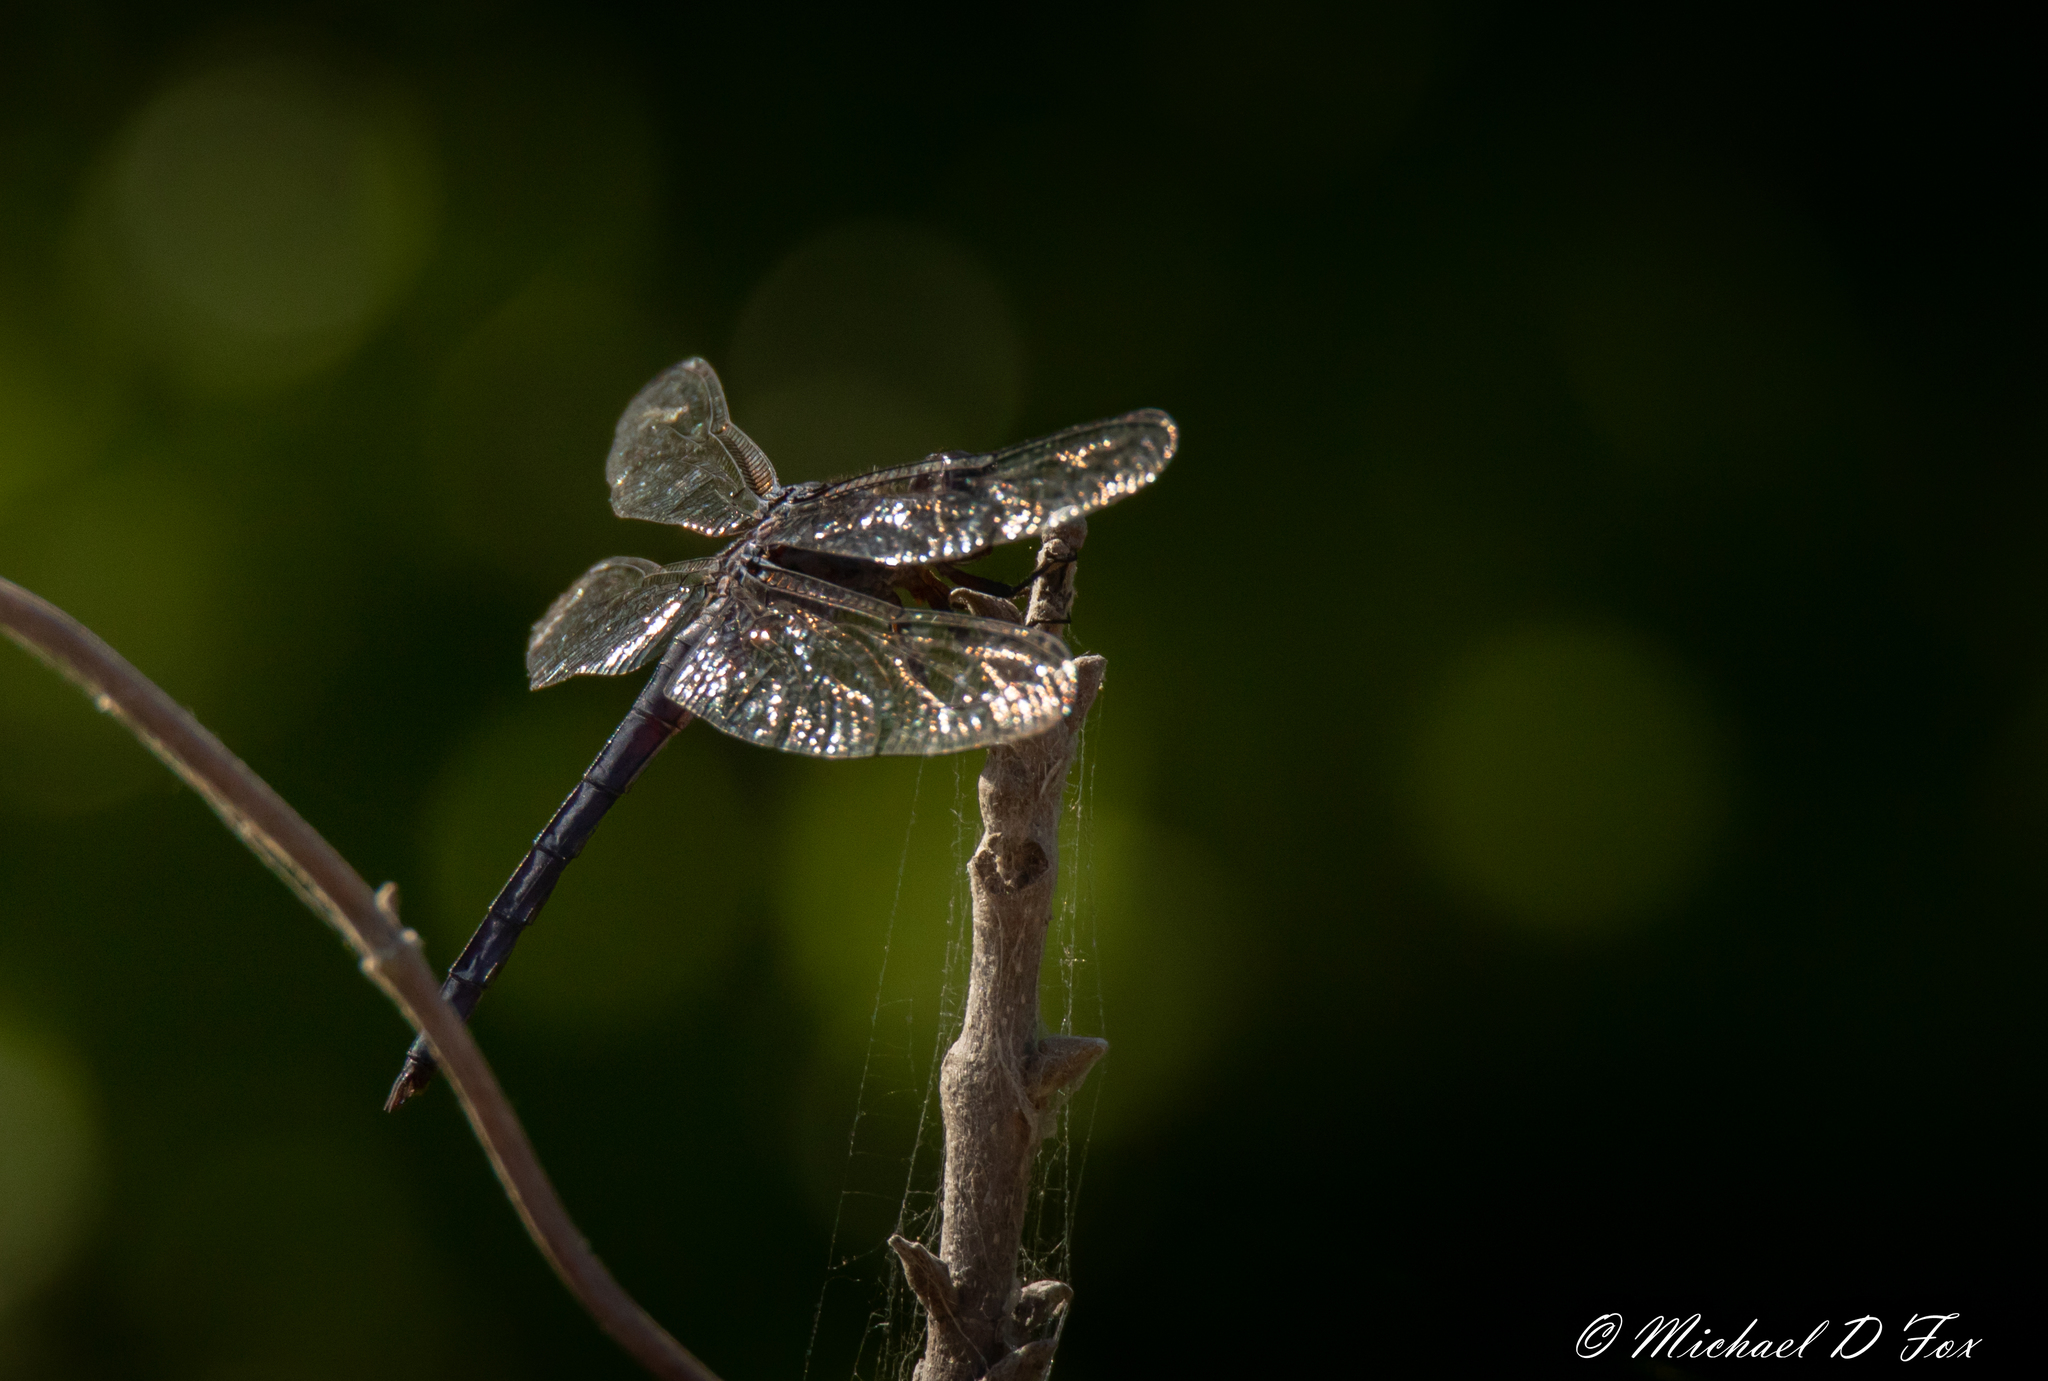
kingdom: Animalia
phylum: Arthropoda
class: Insecta
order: Odonata
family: Libellulidae
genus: Libellula
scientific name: Libellula incesta
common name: Slaty skimmer
